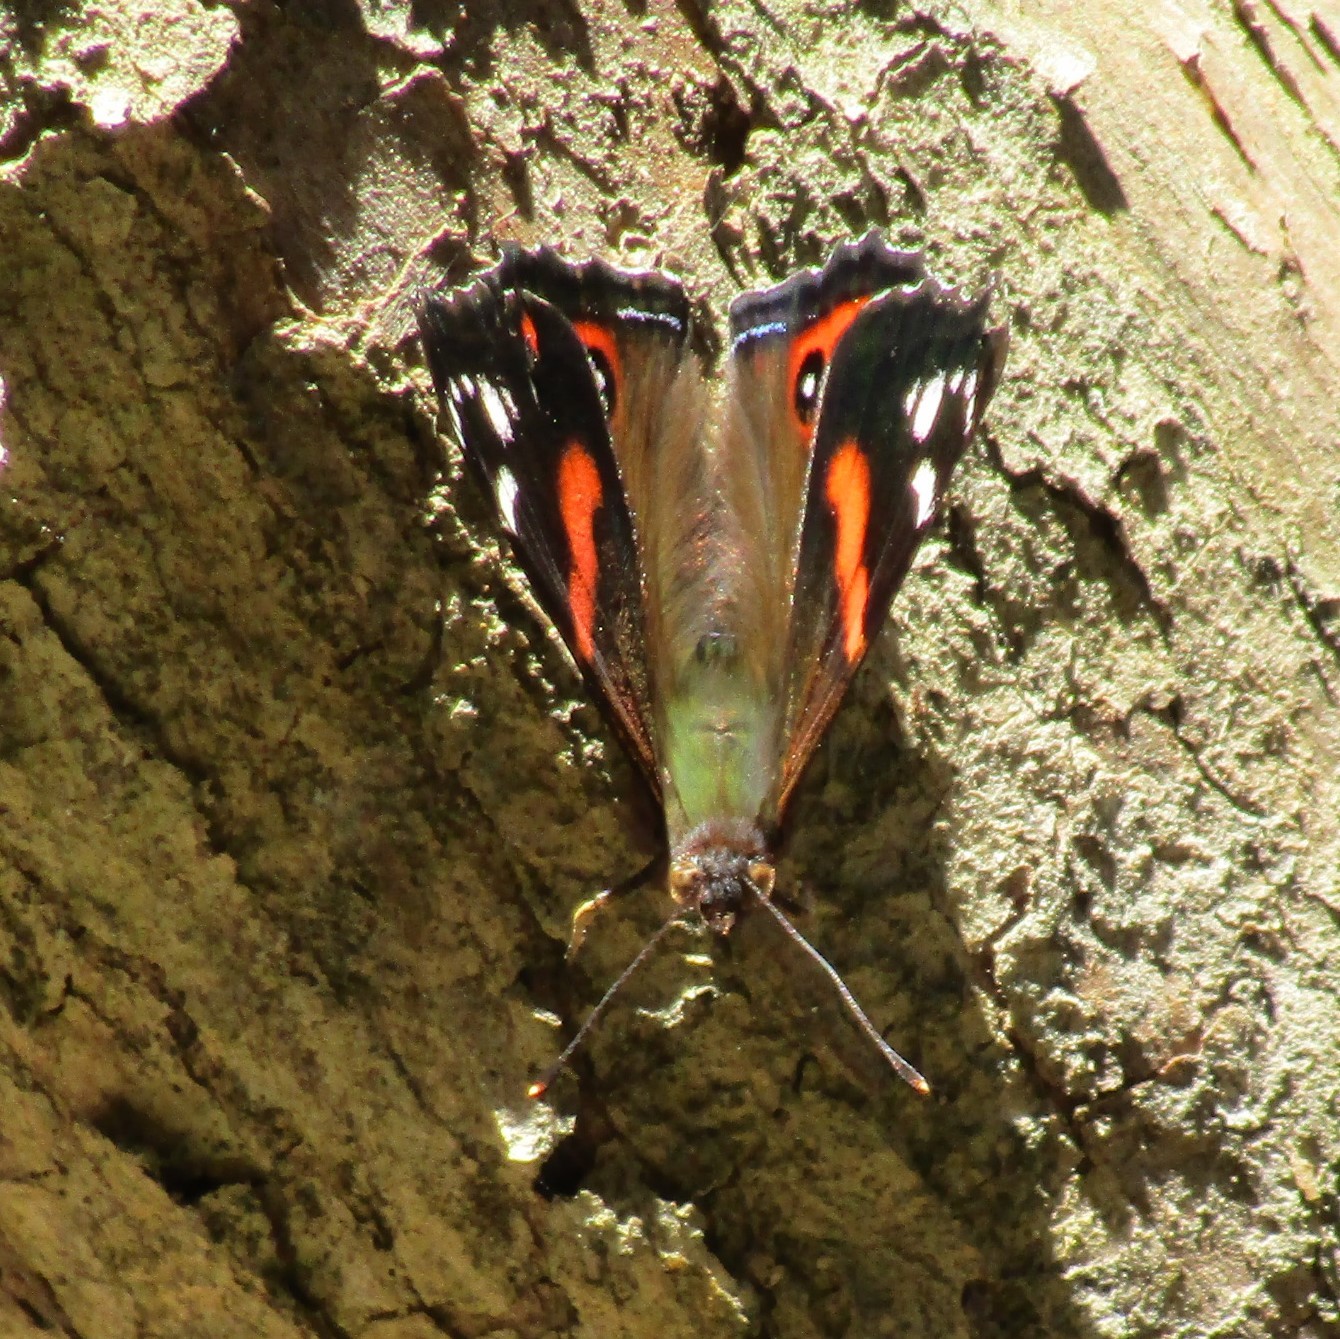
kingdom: Animalia
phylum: Arthropoda
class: Insecta
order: Lepidoptera
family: Nymphalidae
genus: Vanessa
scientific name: Vanessa gonerilla
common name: New zealand red admiral
